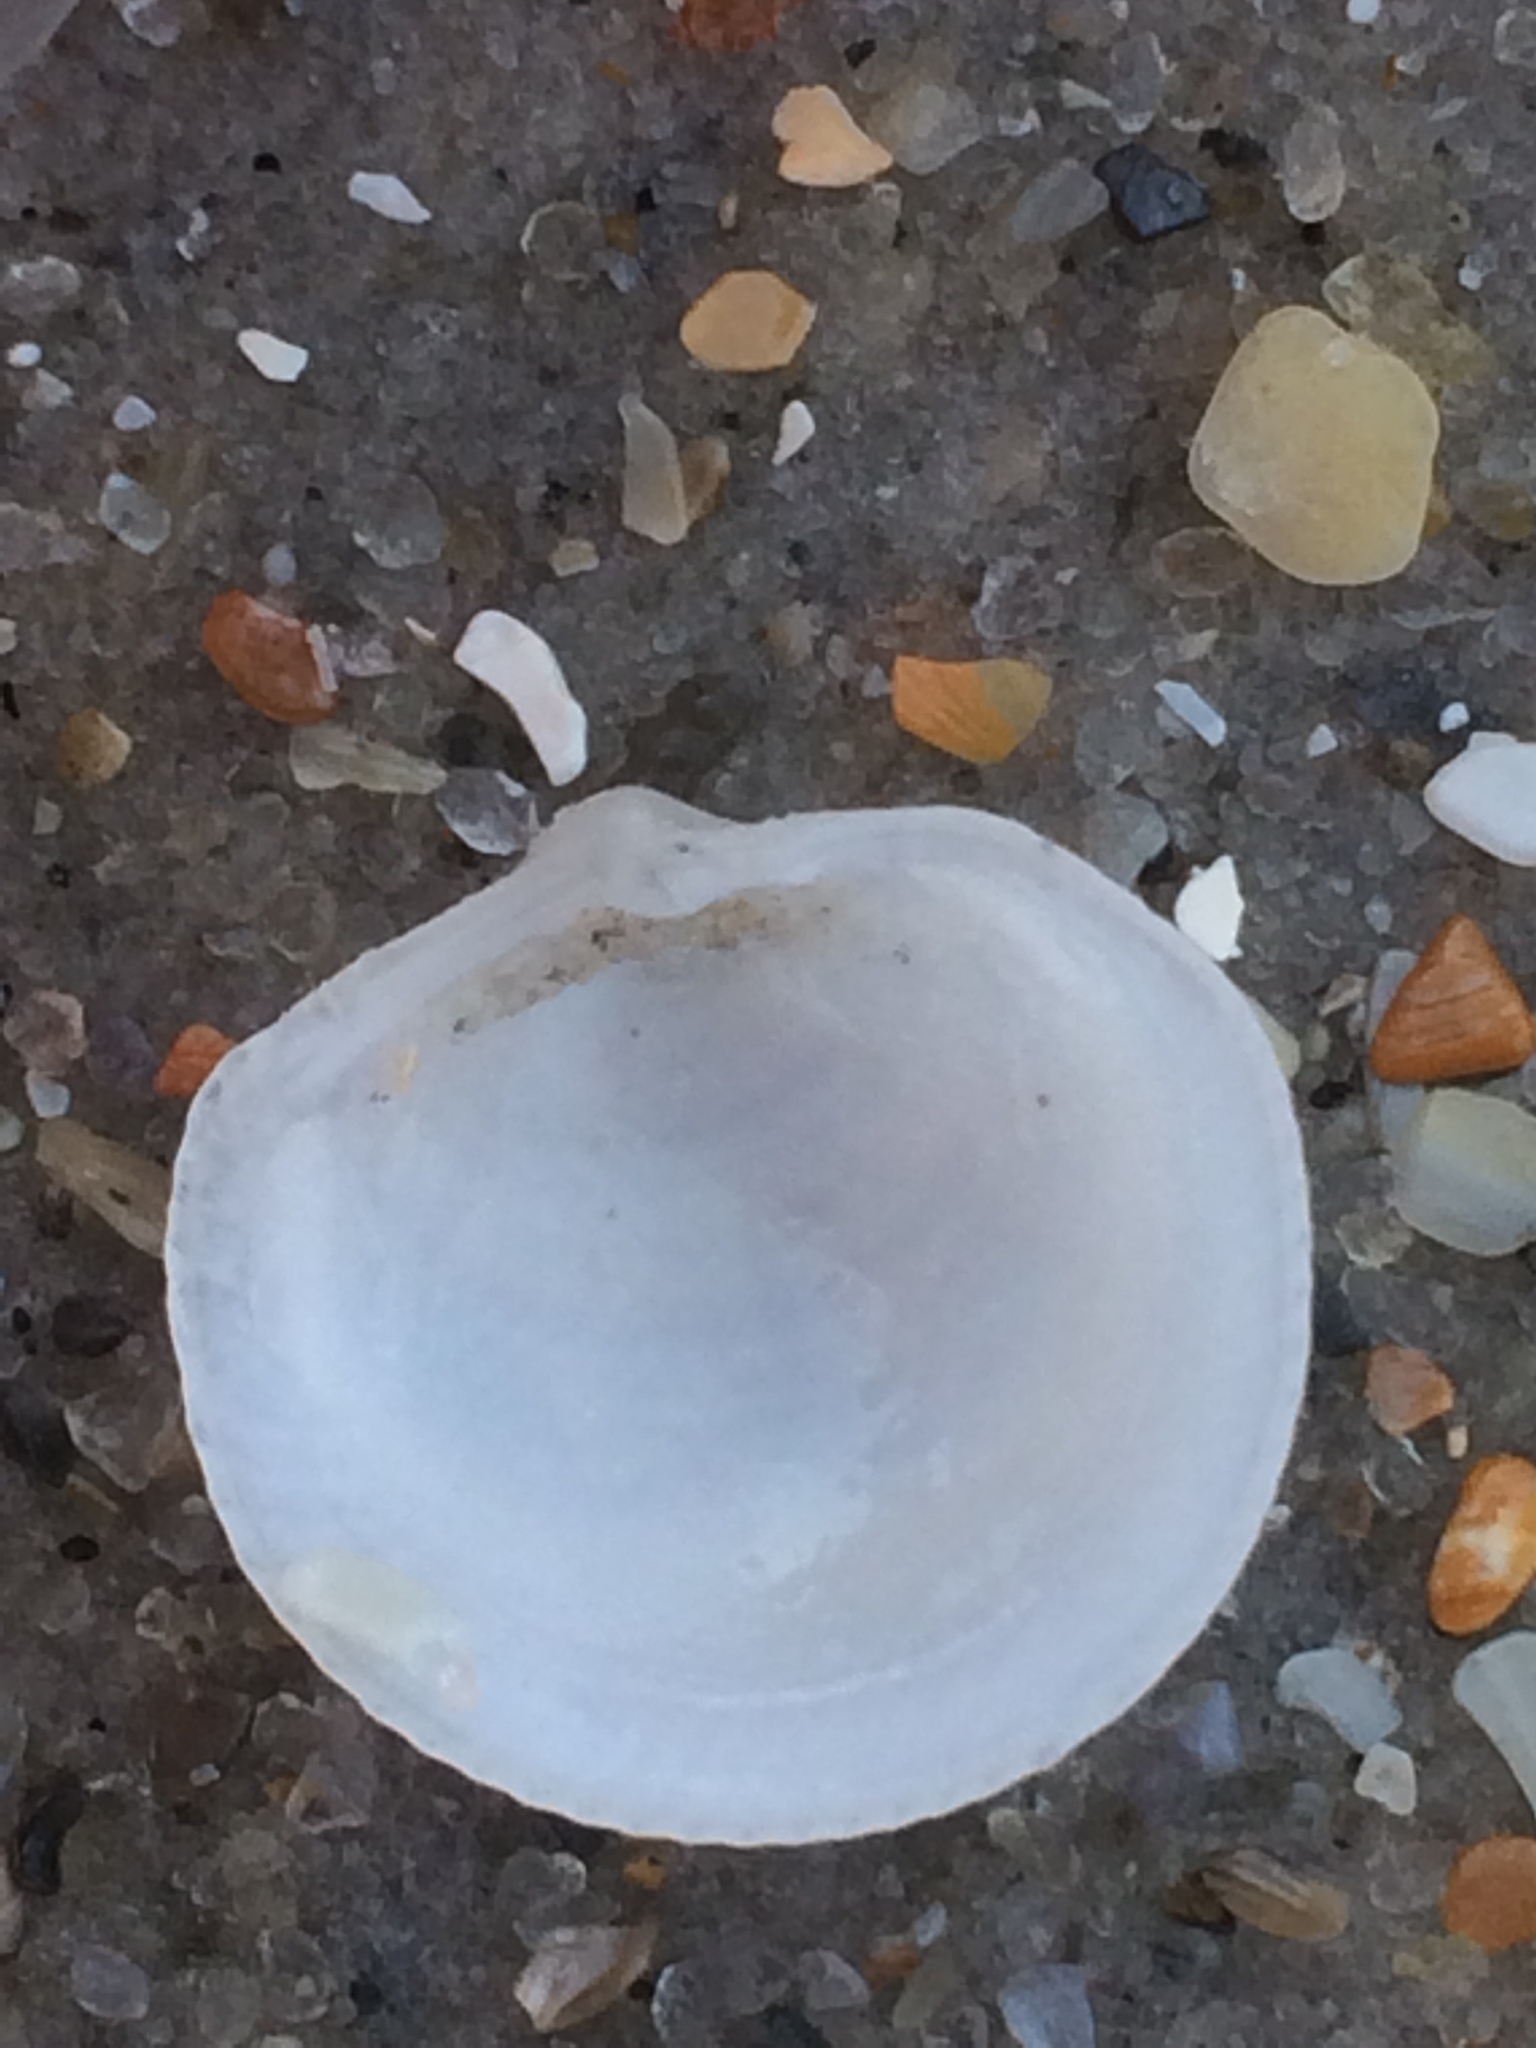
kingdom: Animalia
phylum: Mollusca
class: Bivalvia
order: Lucinida
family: Lucinidae
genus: Divalinga
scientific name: Divalinga quadrisulcata
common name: Cross-hatched lucine
